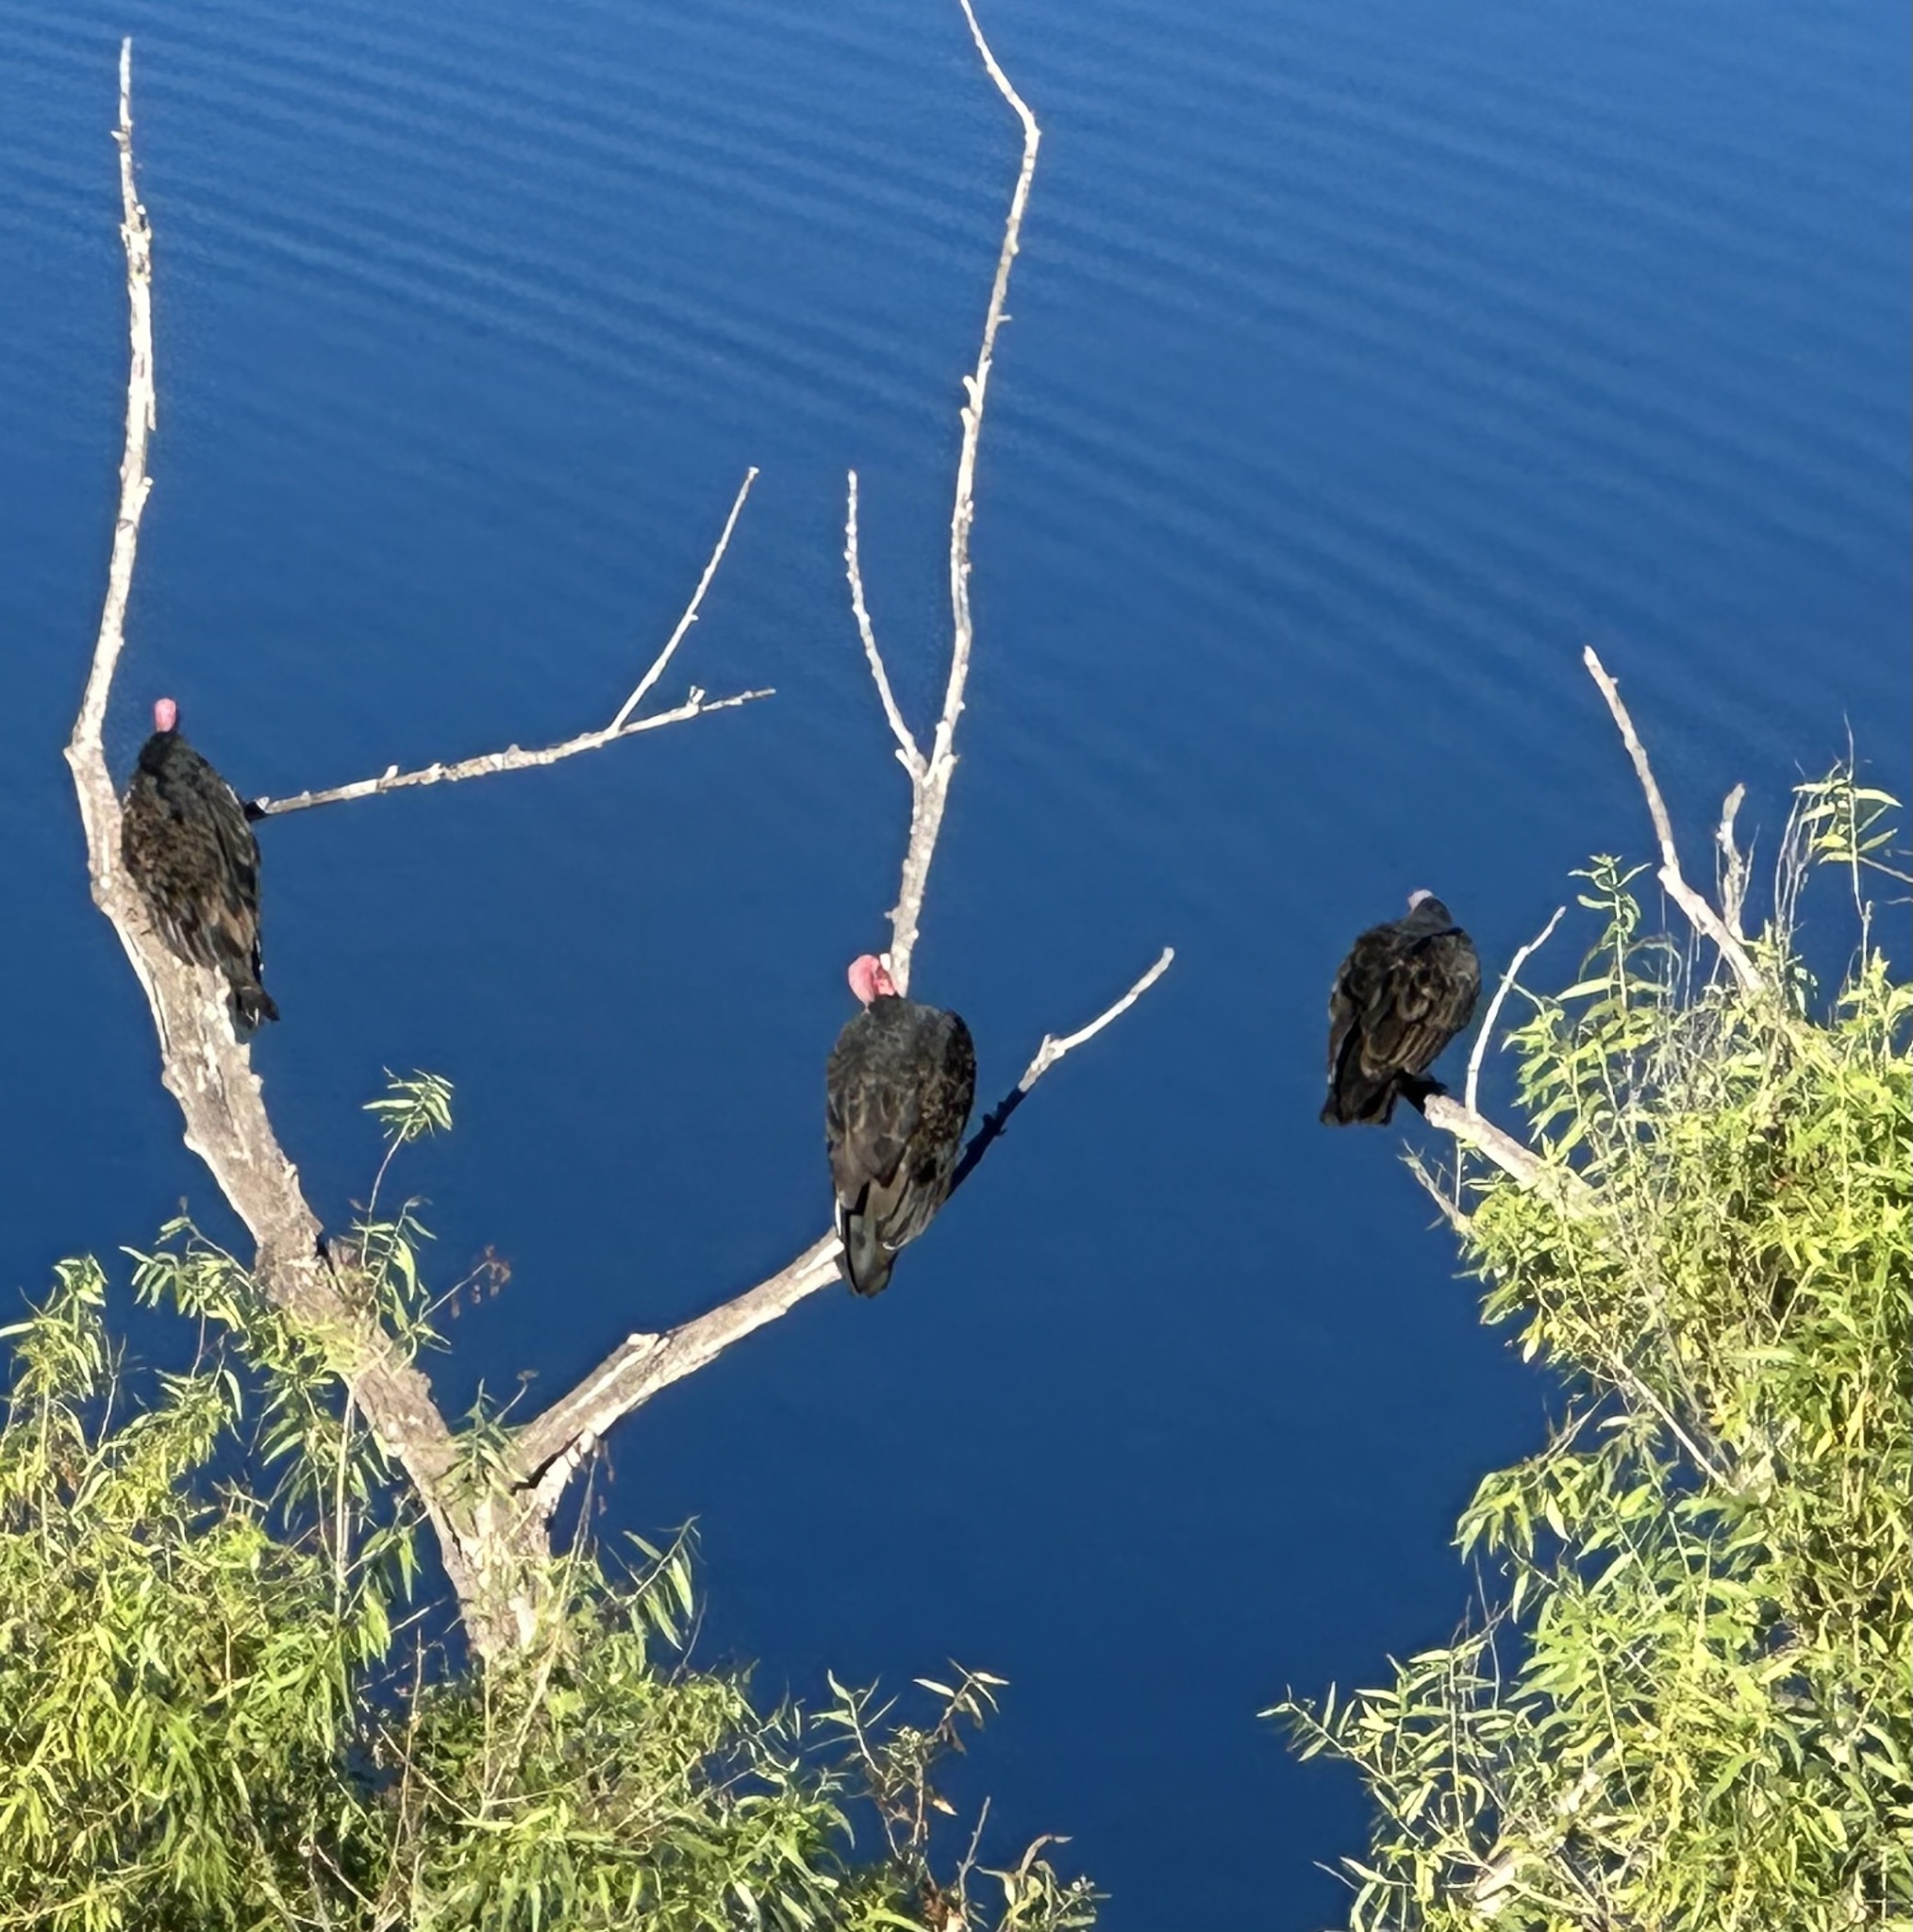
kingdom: Animalia
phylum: Chordata
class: Aves
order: Accipitriformes
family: Cathartidae
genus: Cathartes
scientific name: Cathartes aura
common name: Turkey vulture
